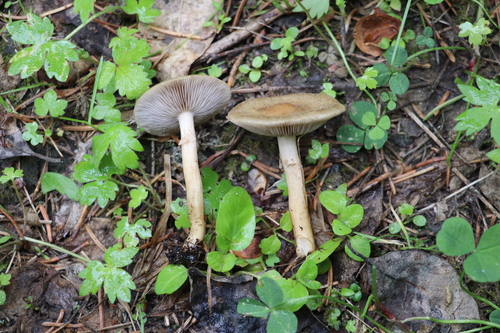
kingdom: Fungi
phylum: Basidiomycota
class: Agaricomycetes
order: Agaricales
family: Strophariaceae
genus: Agrocybe
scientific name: Agrocybe praecox
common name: Spring fieldcap
